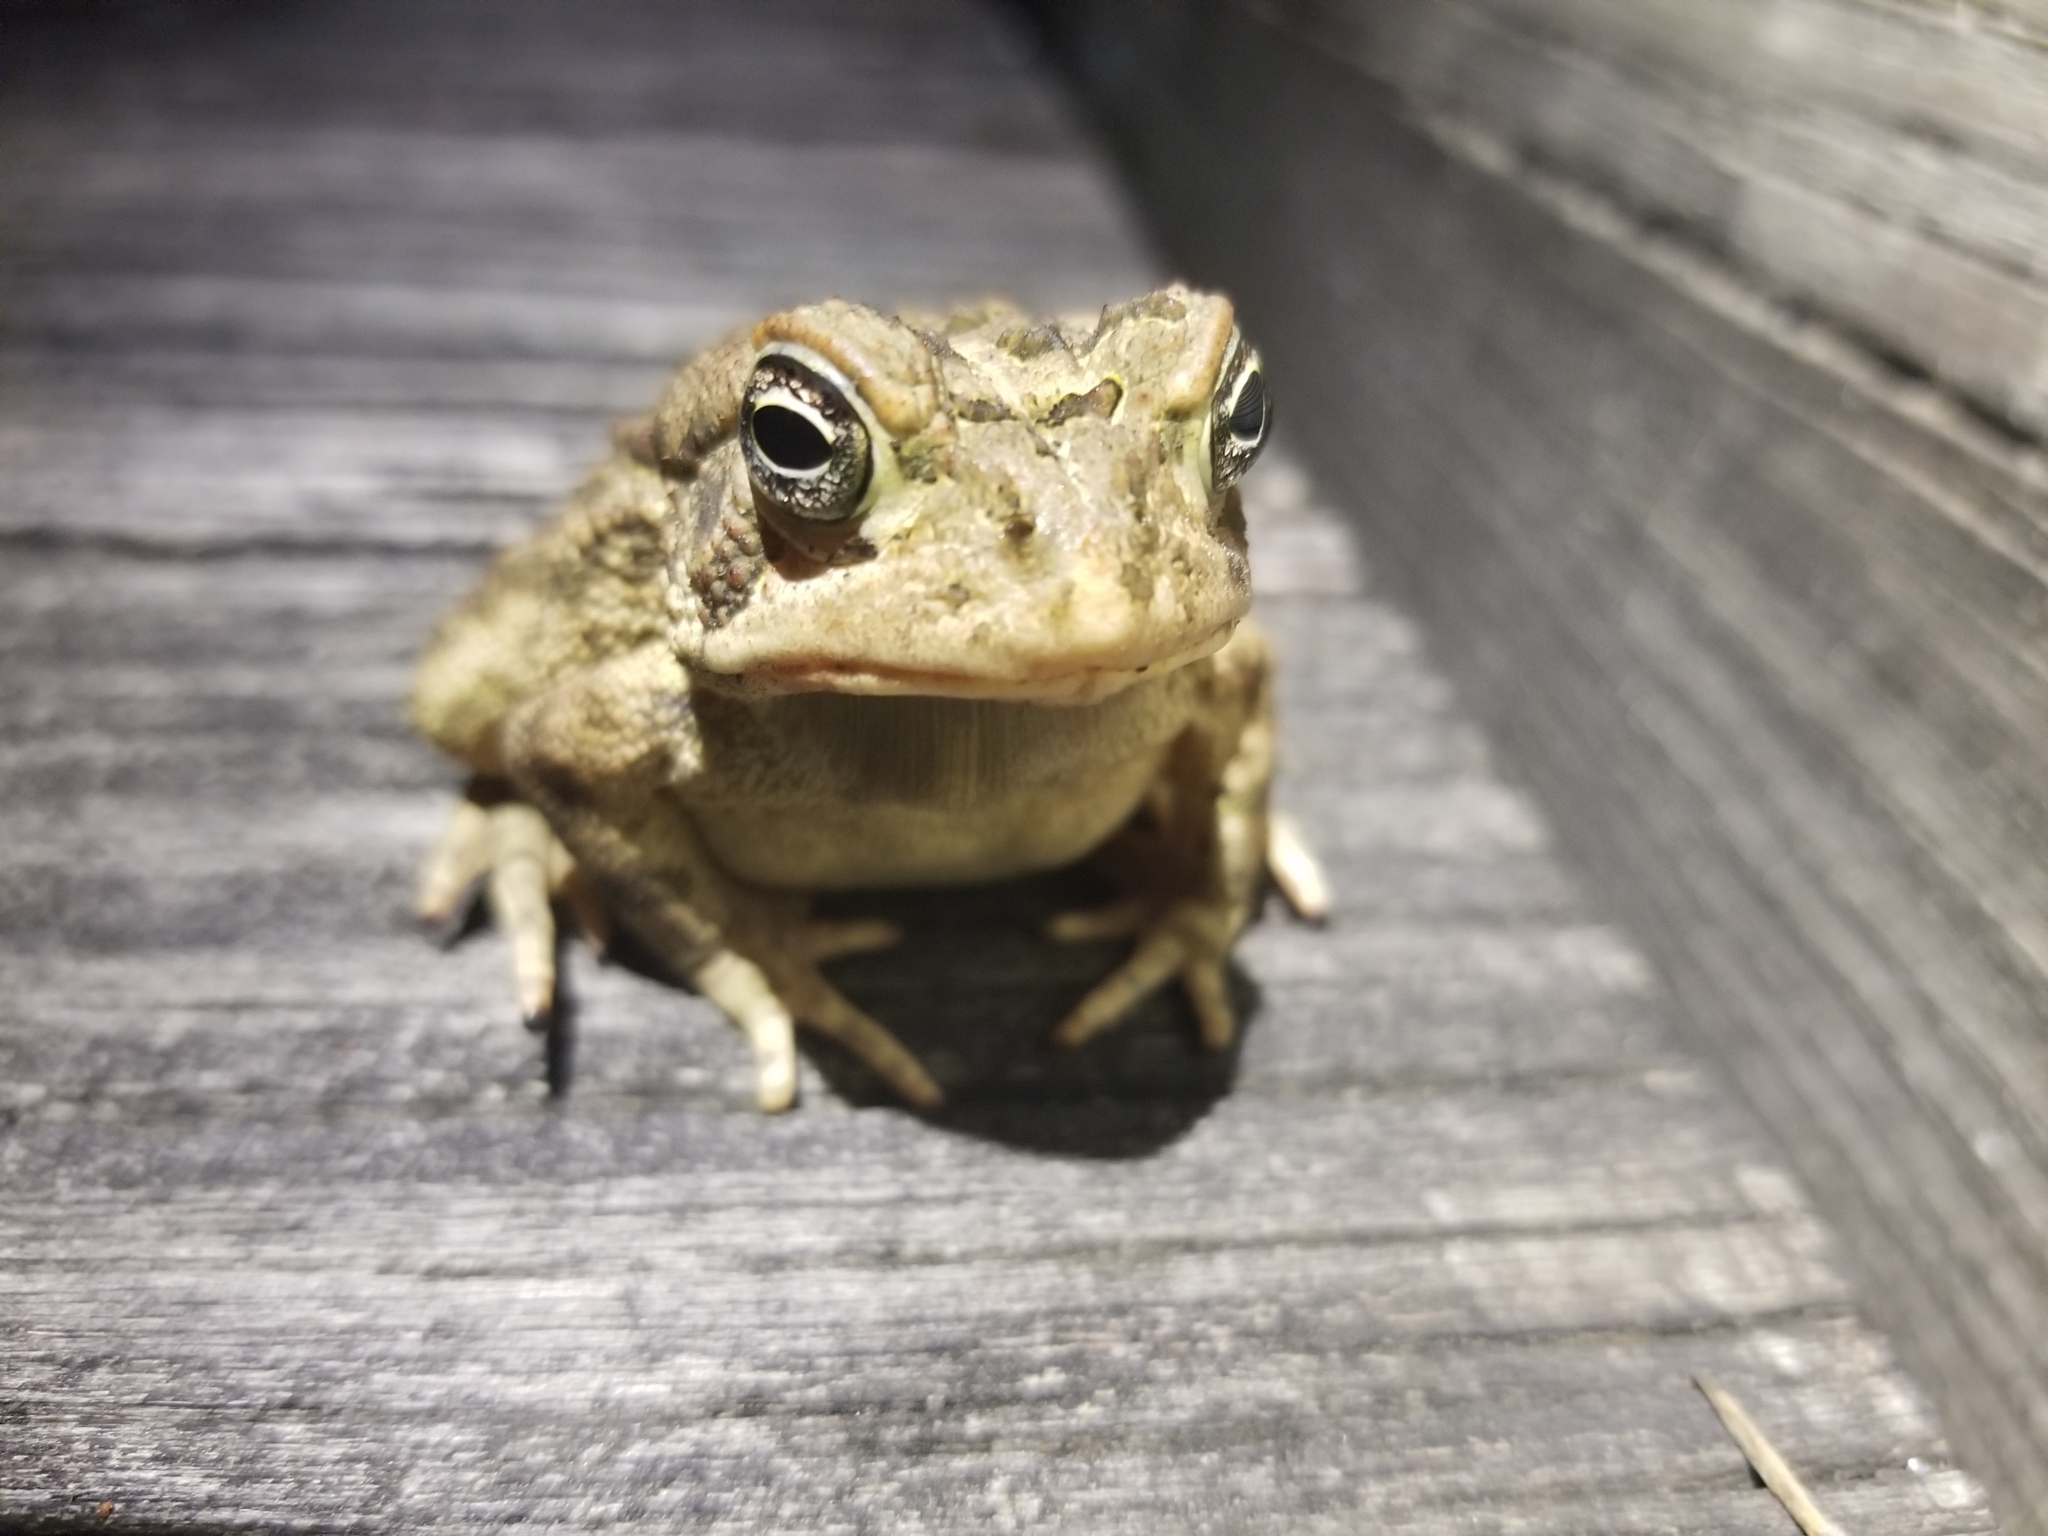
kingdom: Animalia
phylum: Chordata
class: Amphibia
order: Anura
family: Bufonidae
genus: Anaxyrus
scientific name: Anaxyrus fowleri
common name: Fowler's toad
